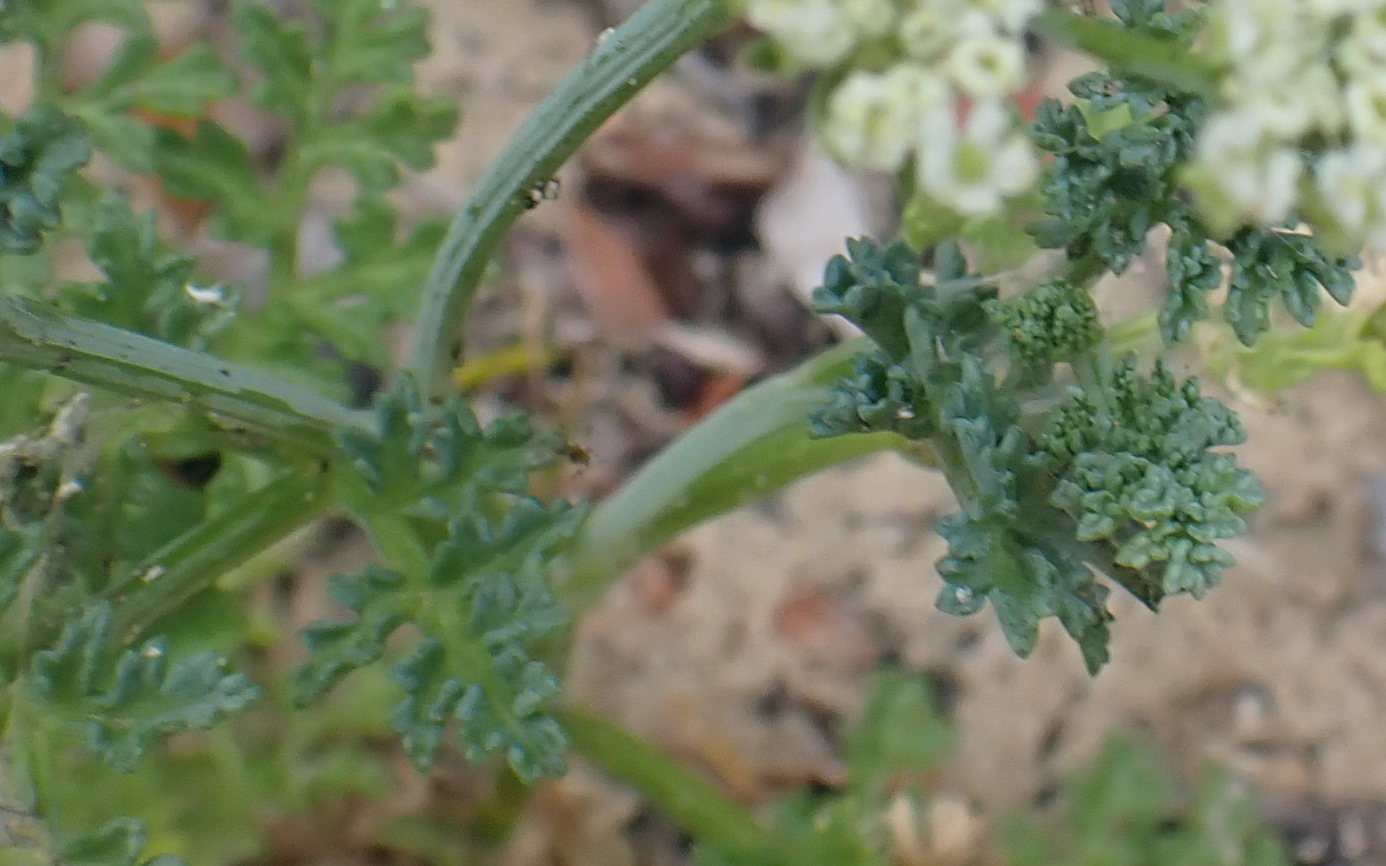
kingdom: Plantae
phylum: Tracheophyta
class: Magnoliopsida
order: Apiales
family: Apiaceae
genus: Dasispermum
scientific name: Dasispermum suffruticosum
